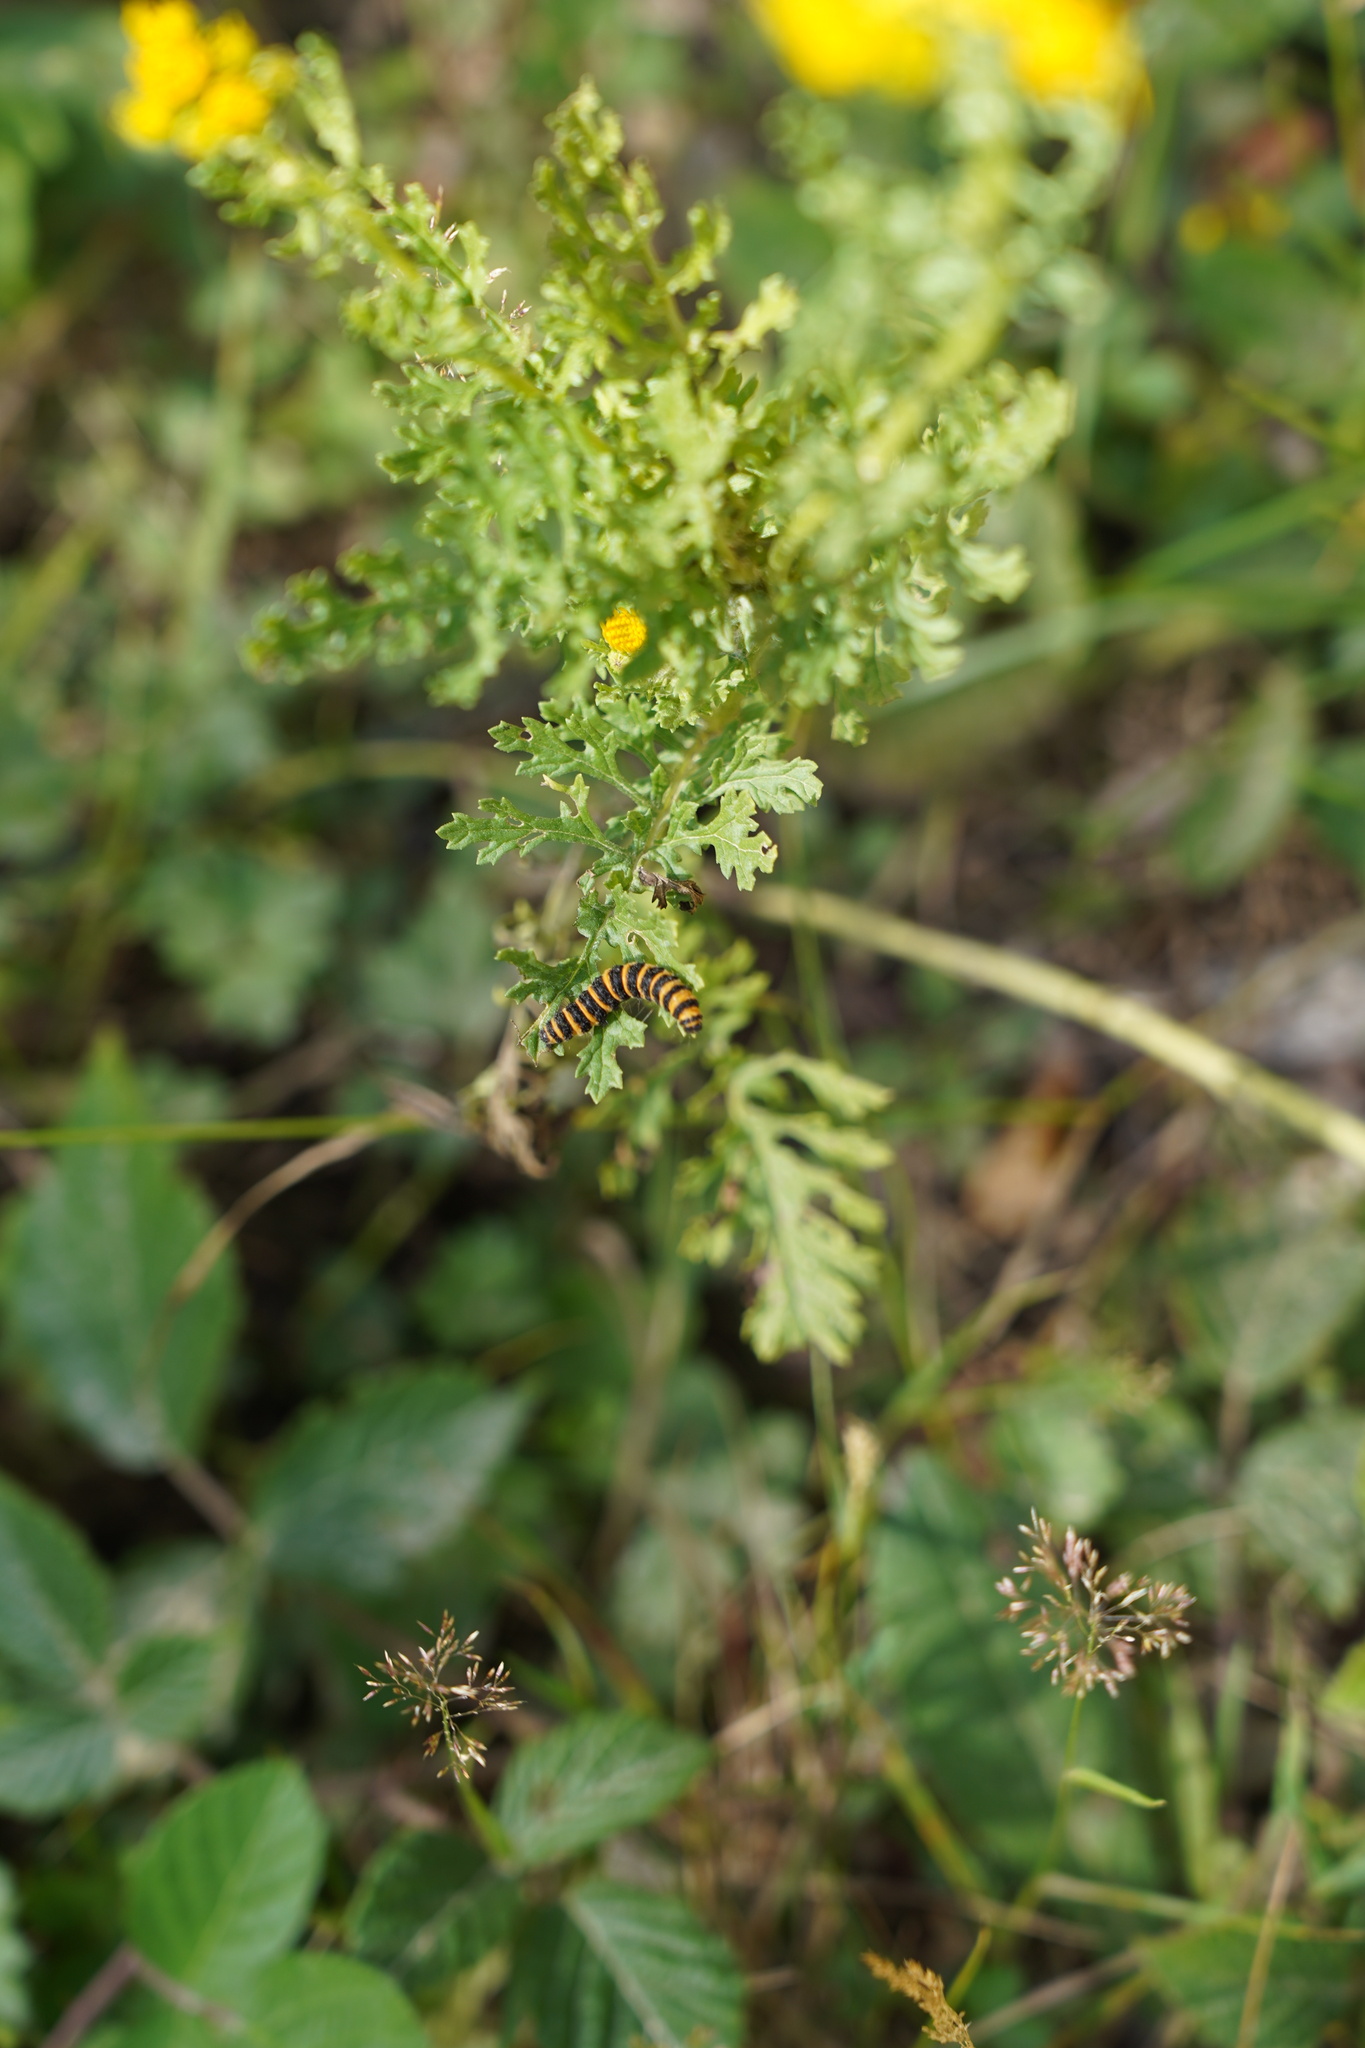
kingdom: Animalia
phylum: Arthropoda
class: Insecta
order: Lepidoptera
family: Erebidae
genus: Tyria
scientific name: Tyria jacobaeae
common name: Cinnabar
